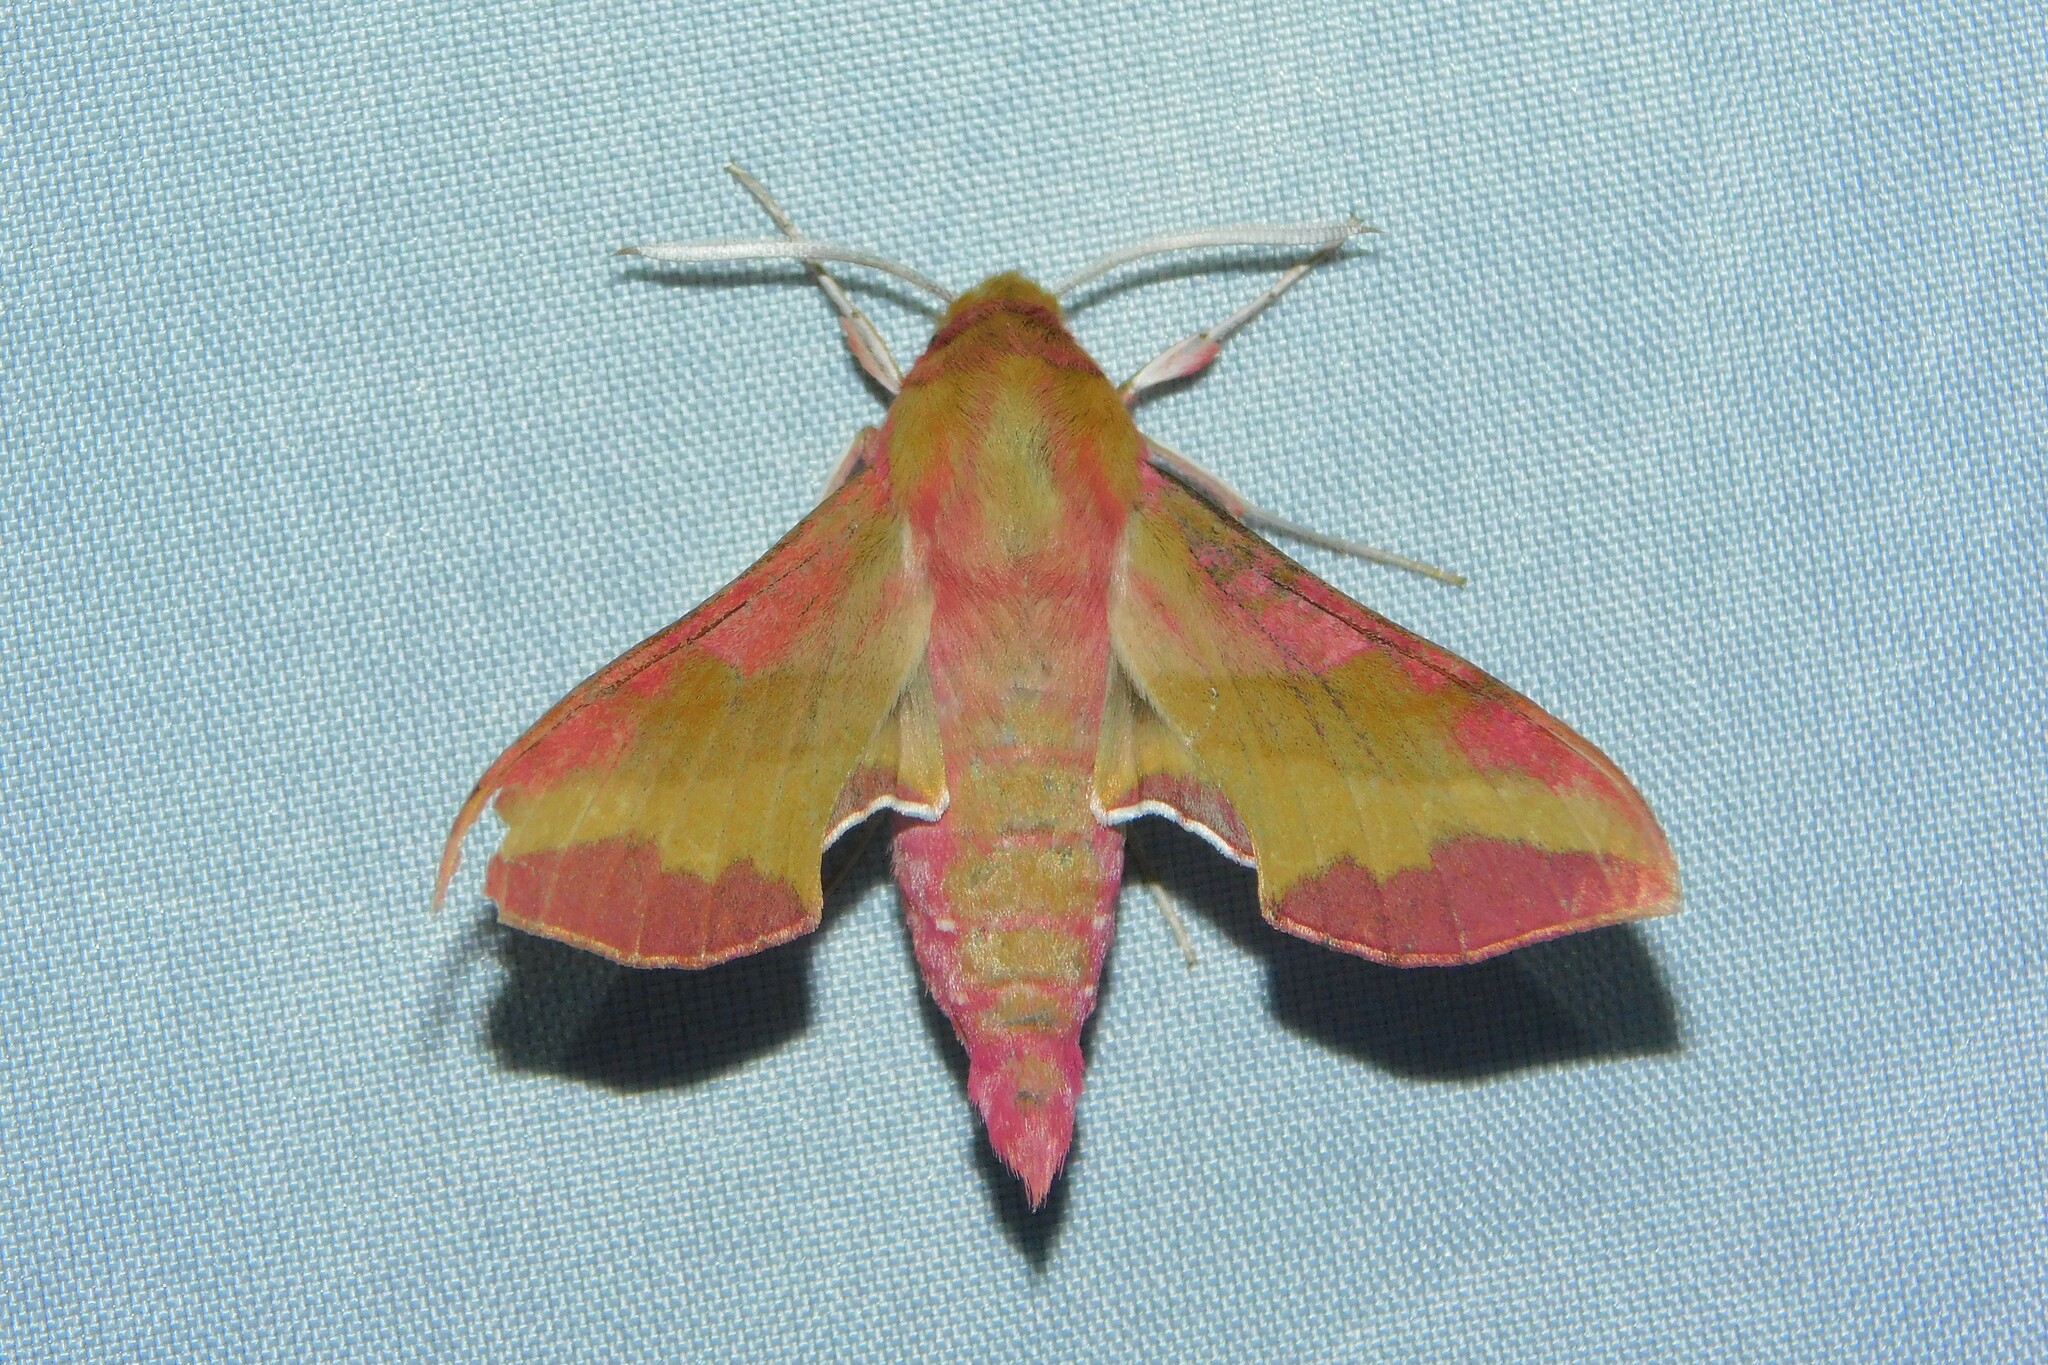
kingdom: Animalia
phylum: Arthropoda
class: Insecta
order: Lepidoptera
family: Sphingidae
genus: Deilephila
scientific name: Deilephila porcellus
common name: Small elephant hawk-moth
